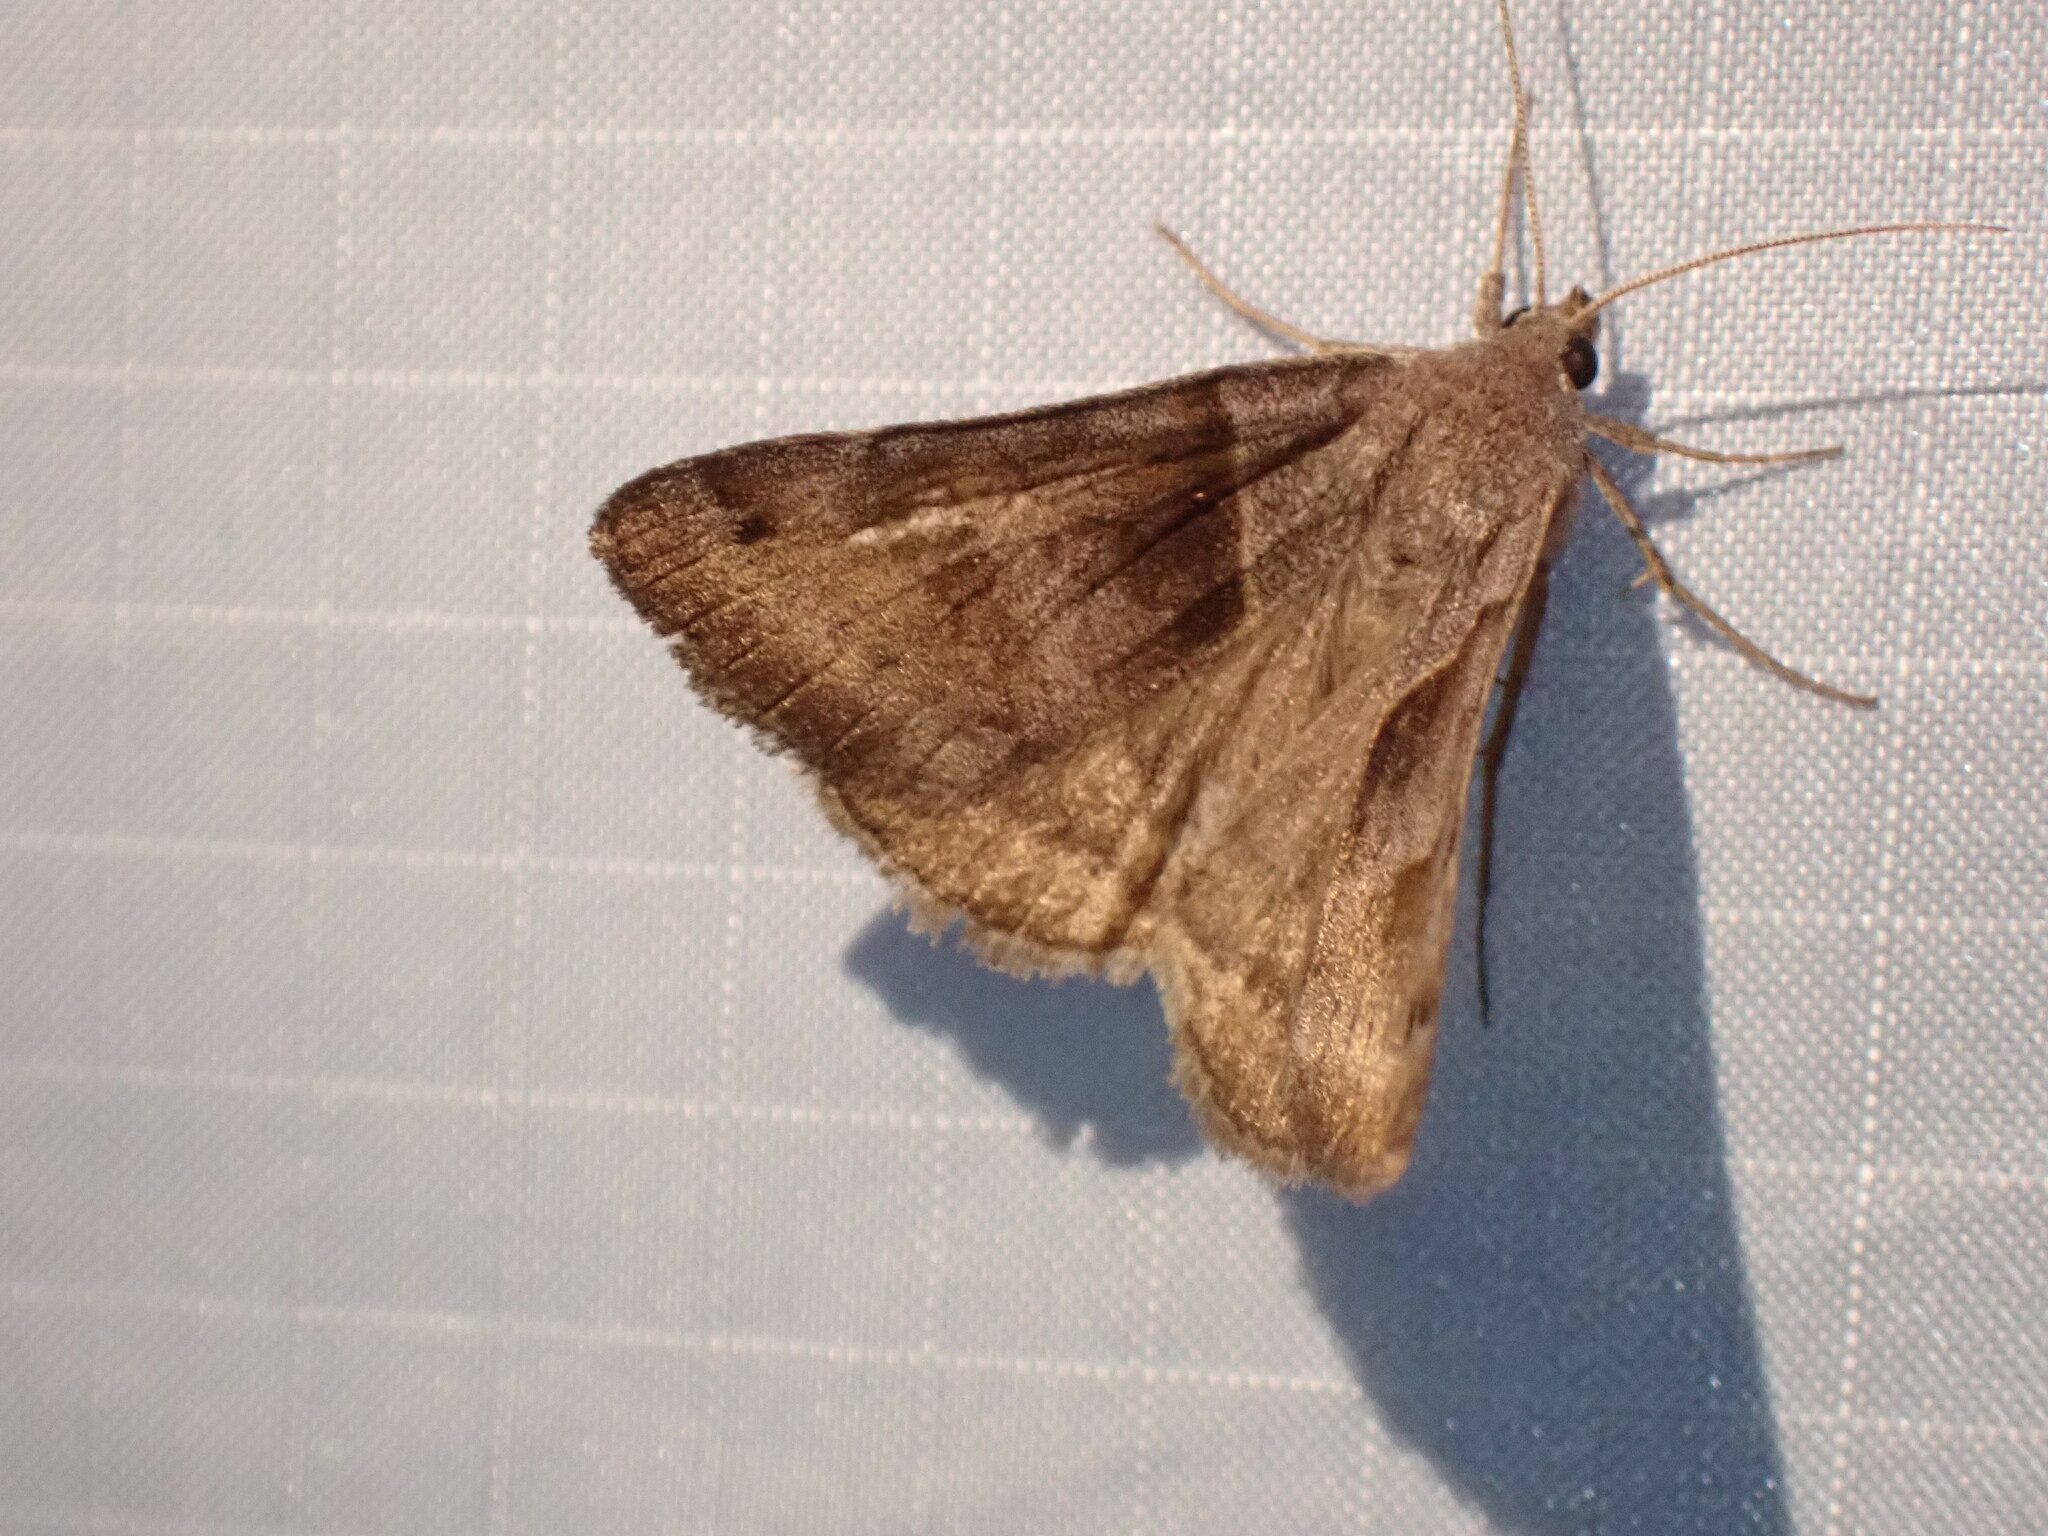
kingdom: Animalia
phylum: Arthropoda
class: Insecta
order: Lepidoptera
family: Erebidae
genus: Caenurgina
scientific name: Caenurgina erechtea
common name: Forage looper moth
